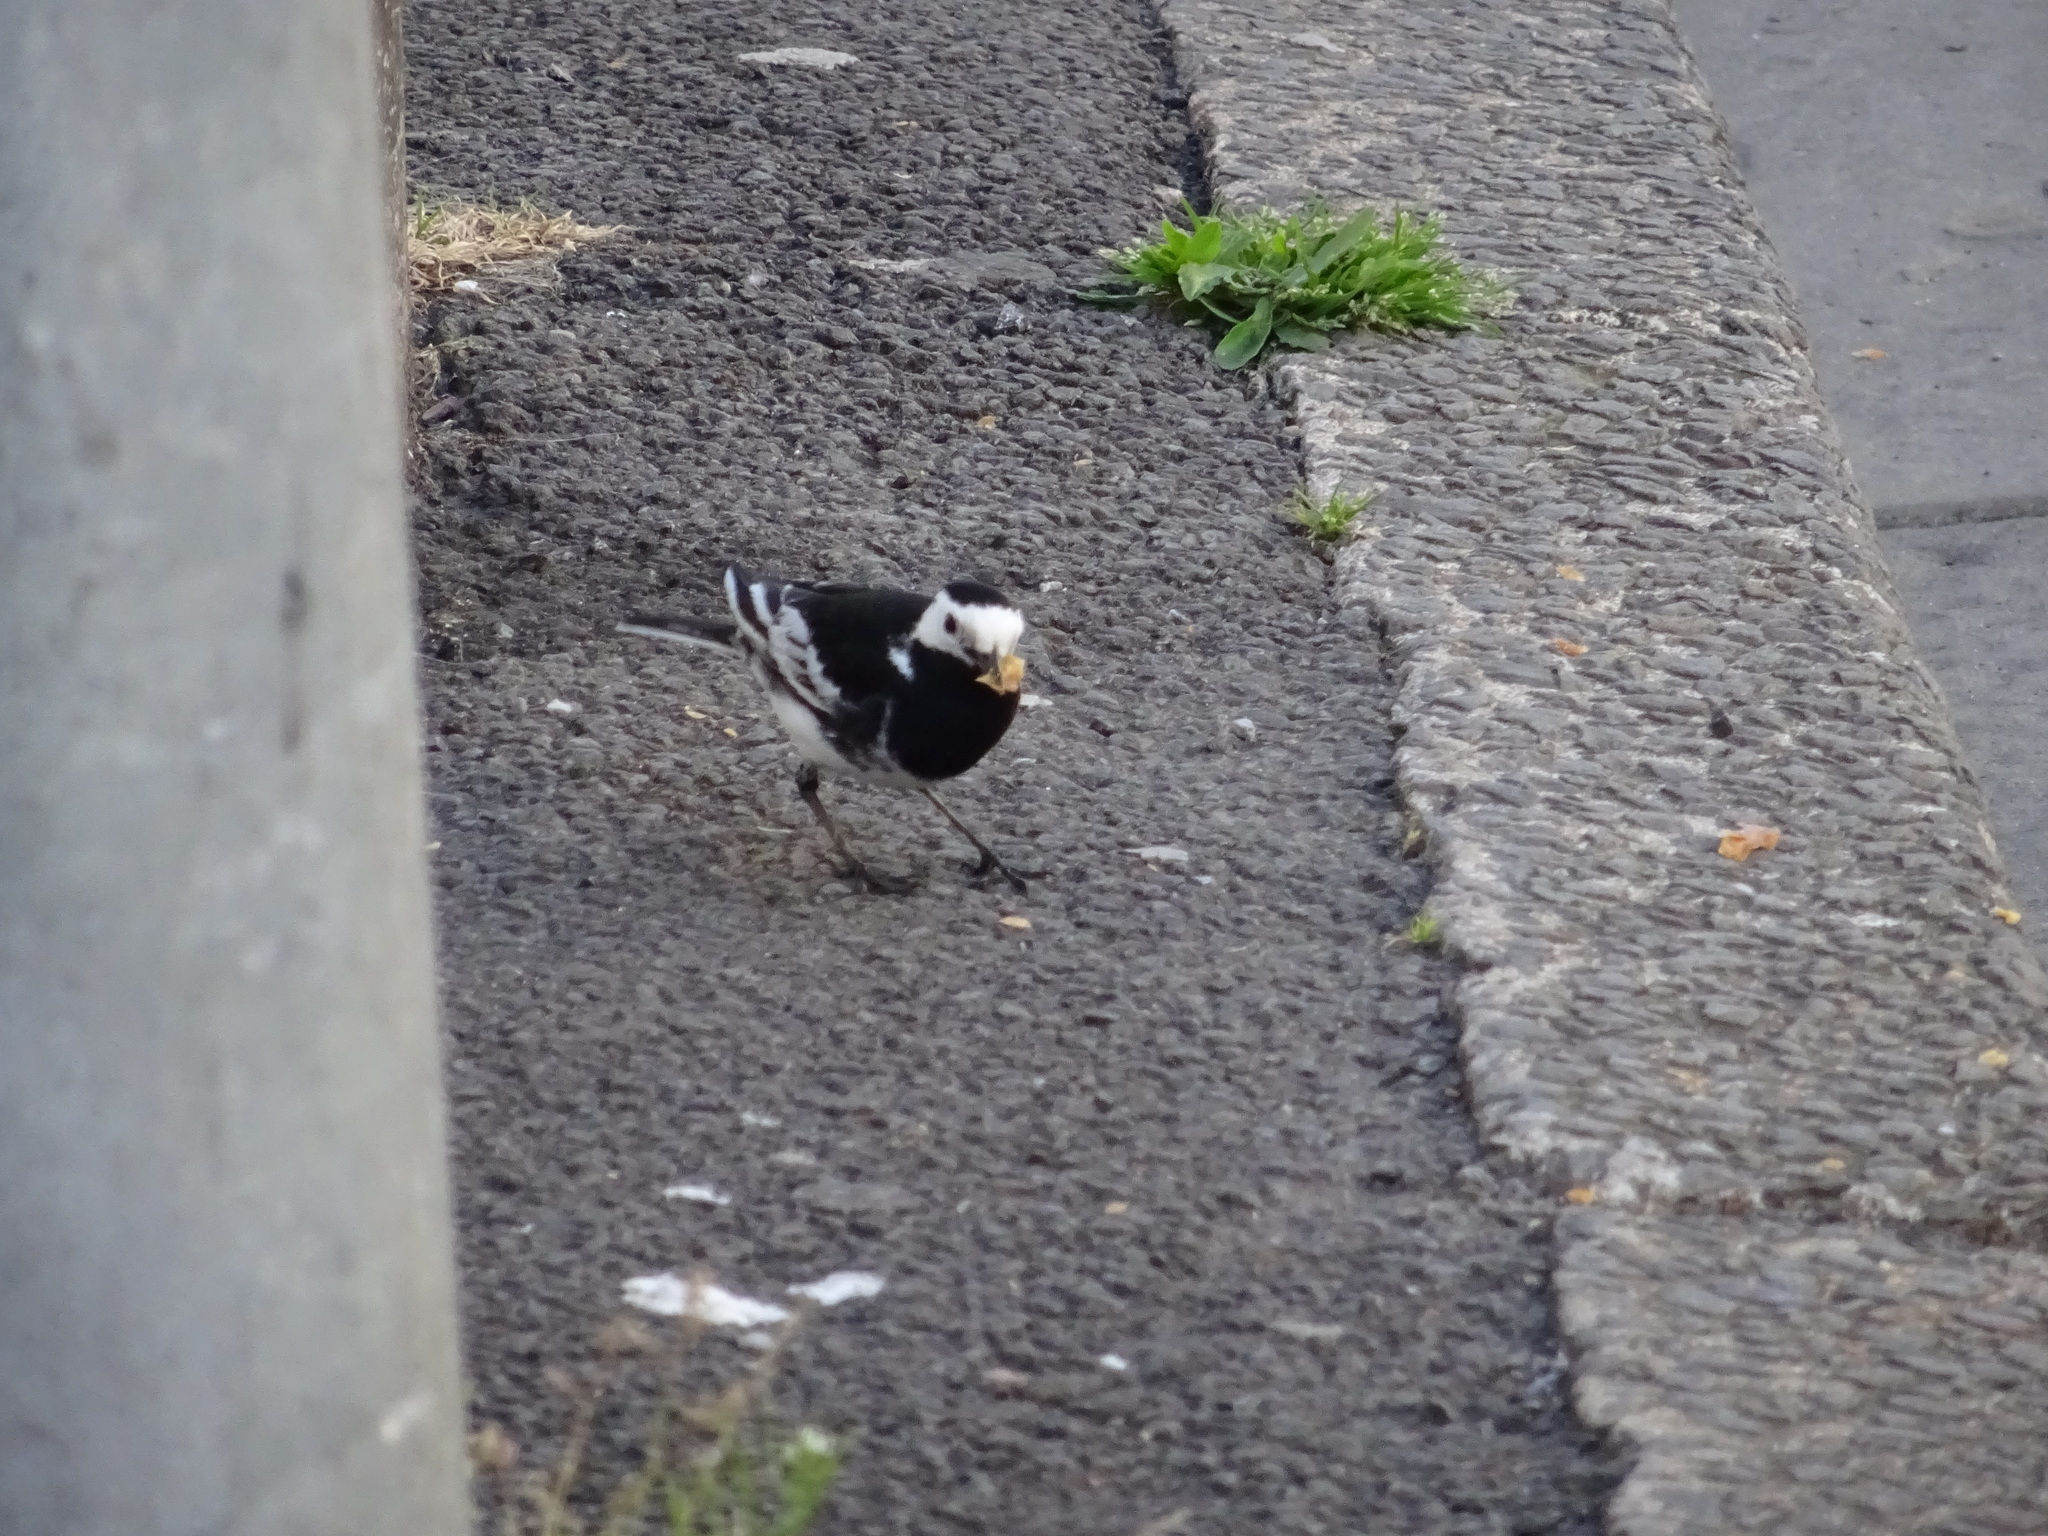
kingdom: Animalia
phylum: Chordata
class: Aves
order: Passeriformes
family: Motacillidae
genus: Motacilla
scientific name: Motacilla alba
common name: White wagtail
